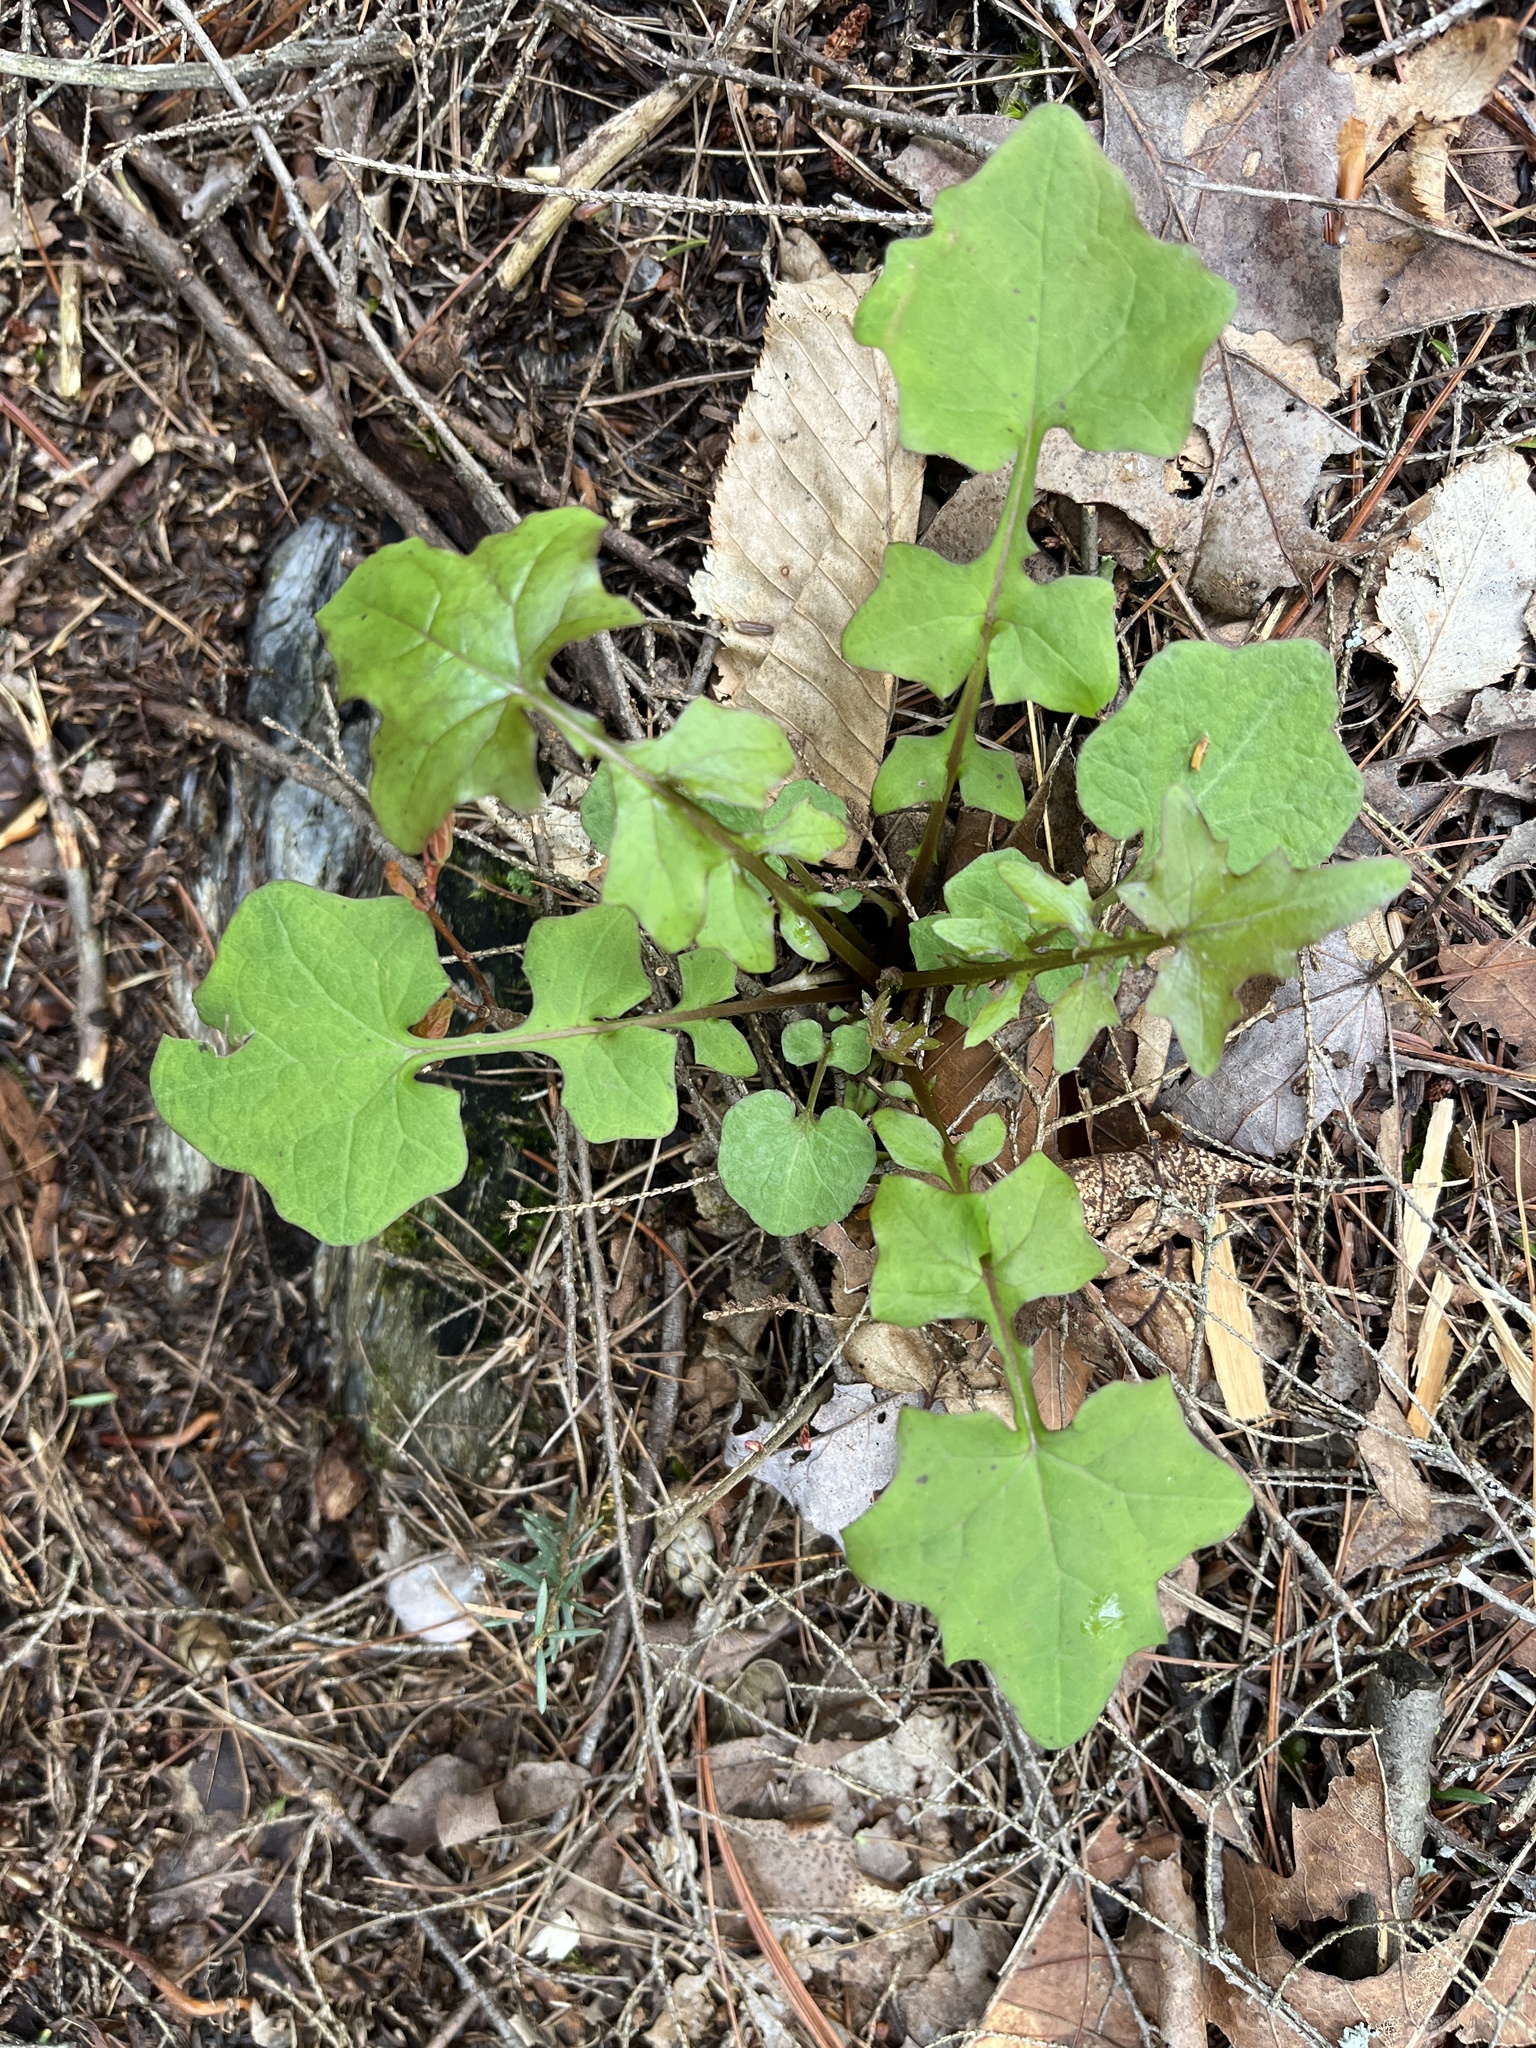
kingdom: Plantae
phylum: Tracheophyta
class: Magnoliopsida
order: Asterales
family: Asteraceae
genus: Mycelis
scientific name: Mycelis muralis
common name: Wall lettuce
